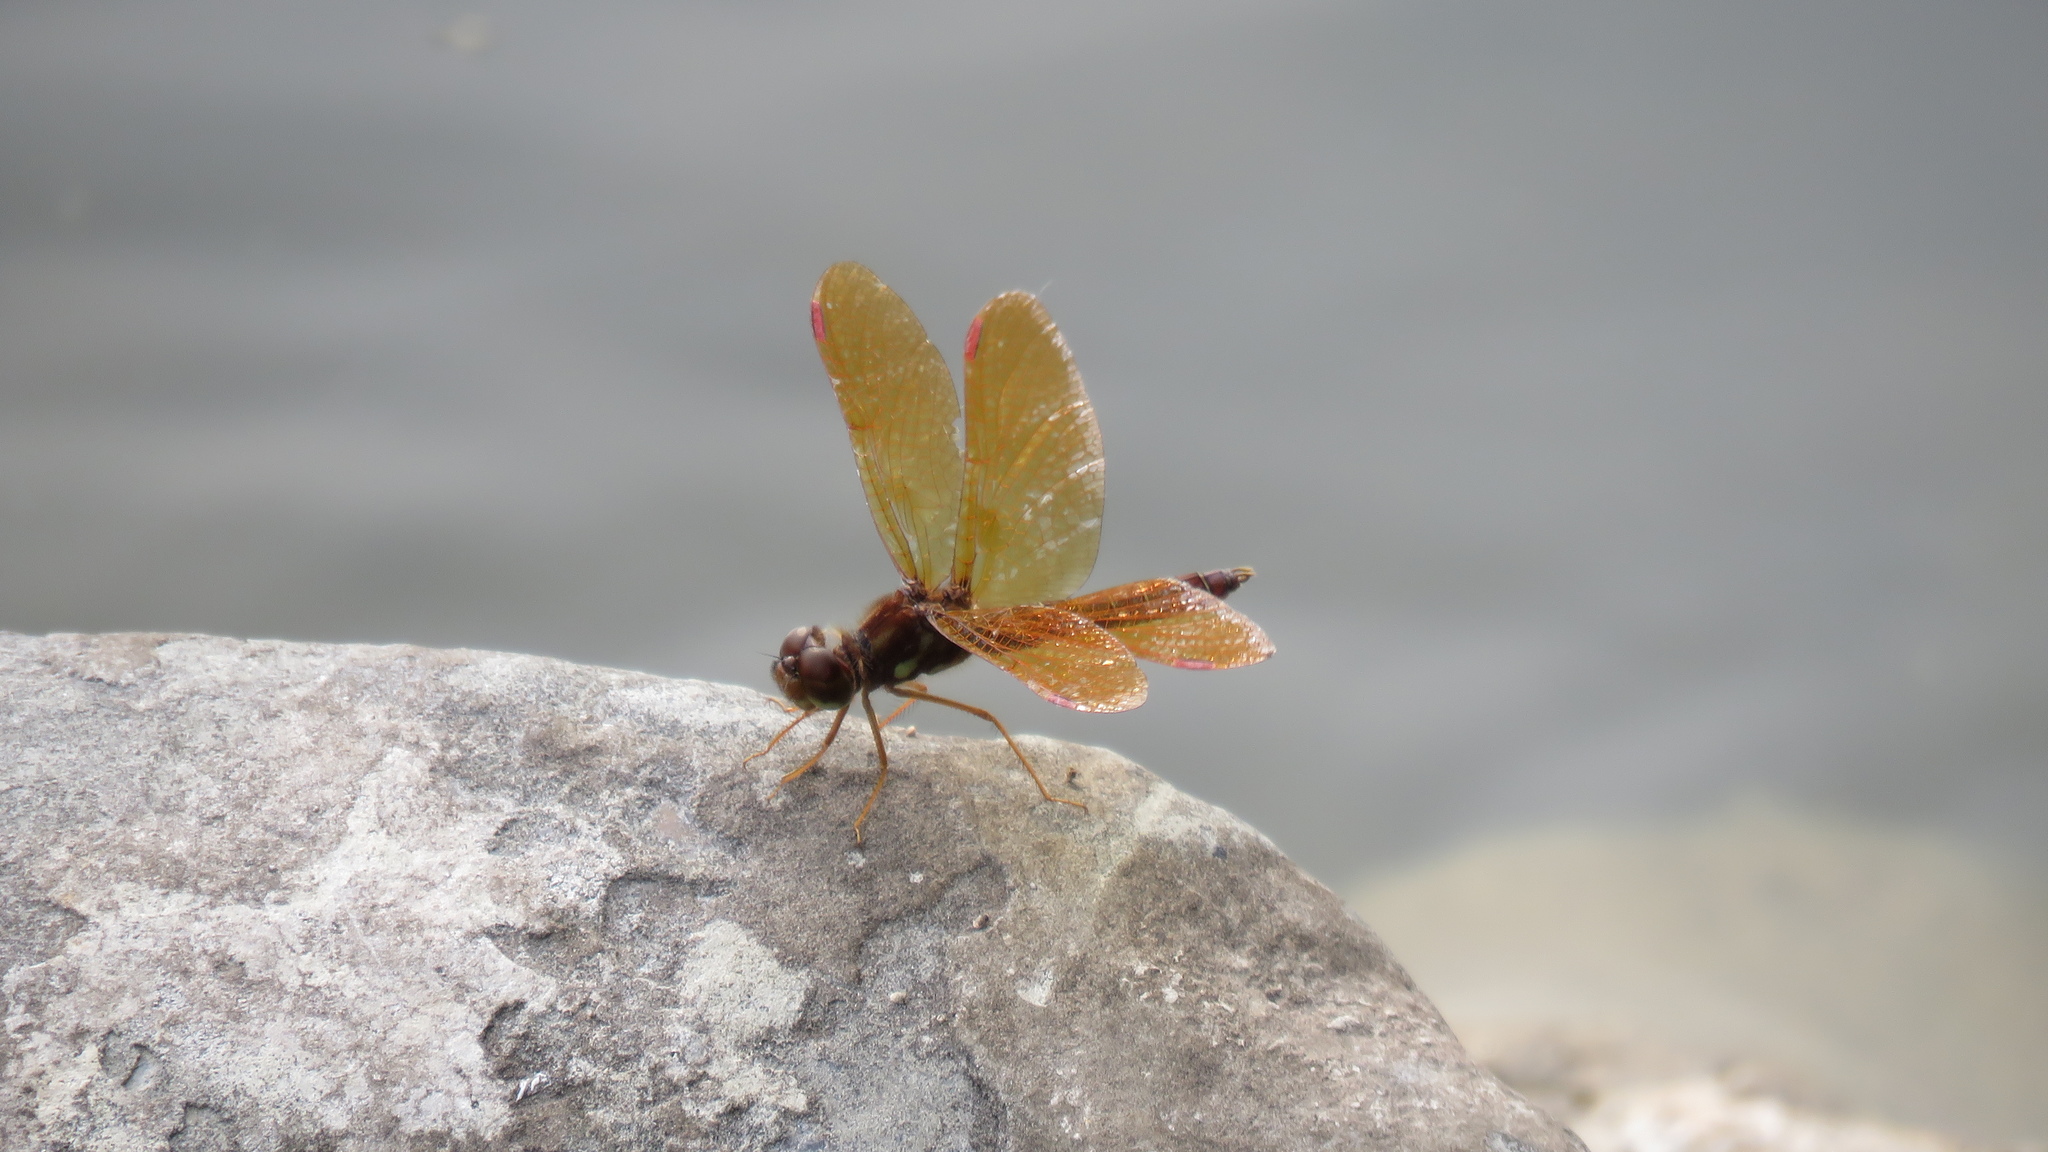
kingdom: Animalia
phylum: Arthropoda
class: Insecta
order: Odonata
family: Libellulidae
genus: Perithemis
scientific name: Perithemis tenera
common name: Eastern amberwing
